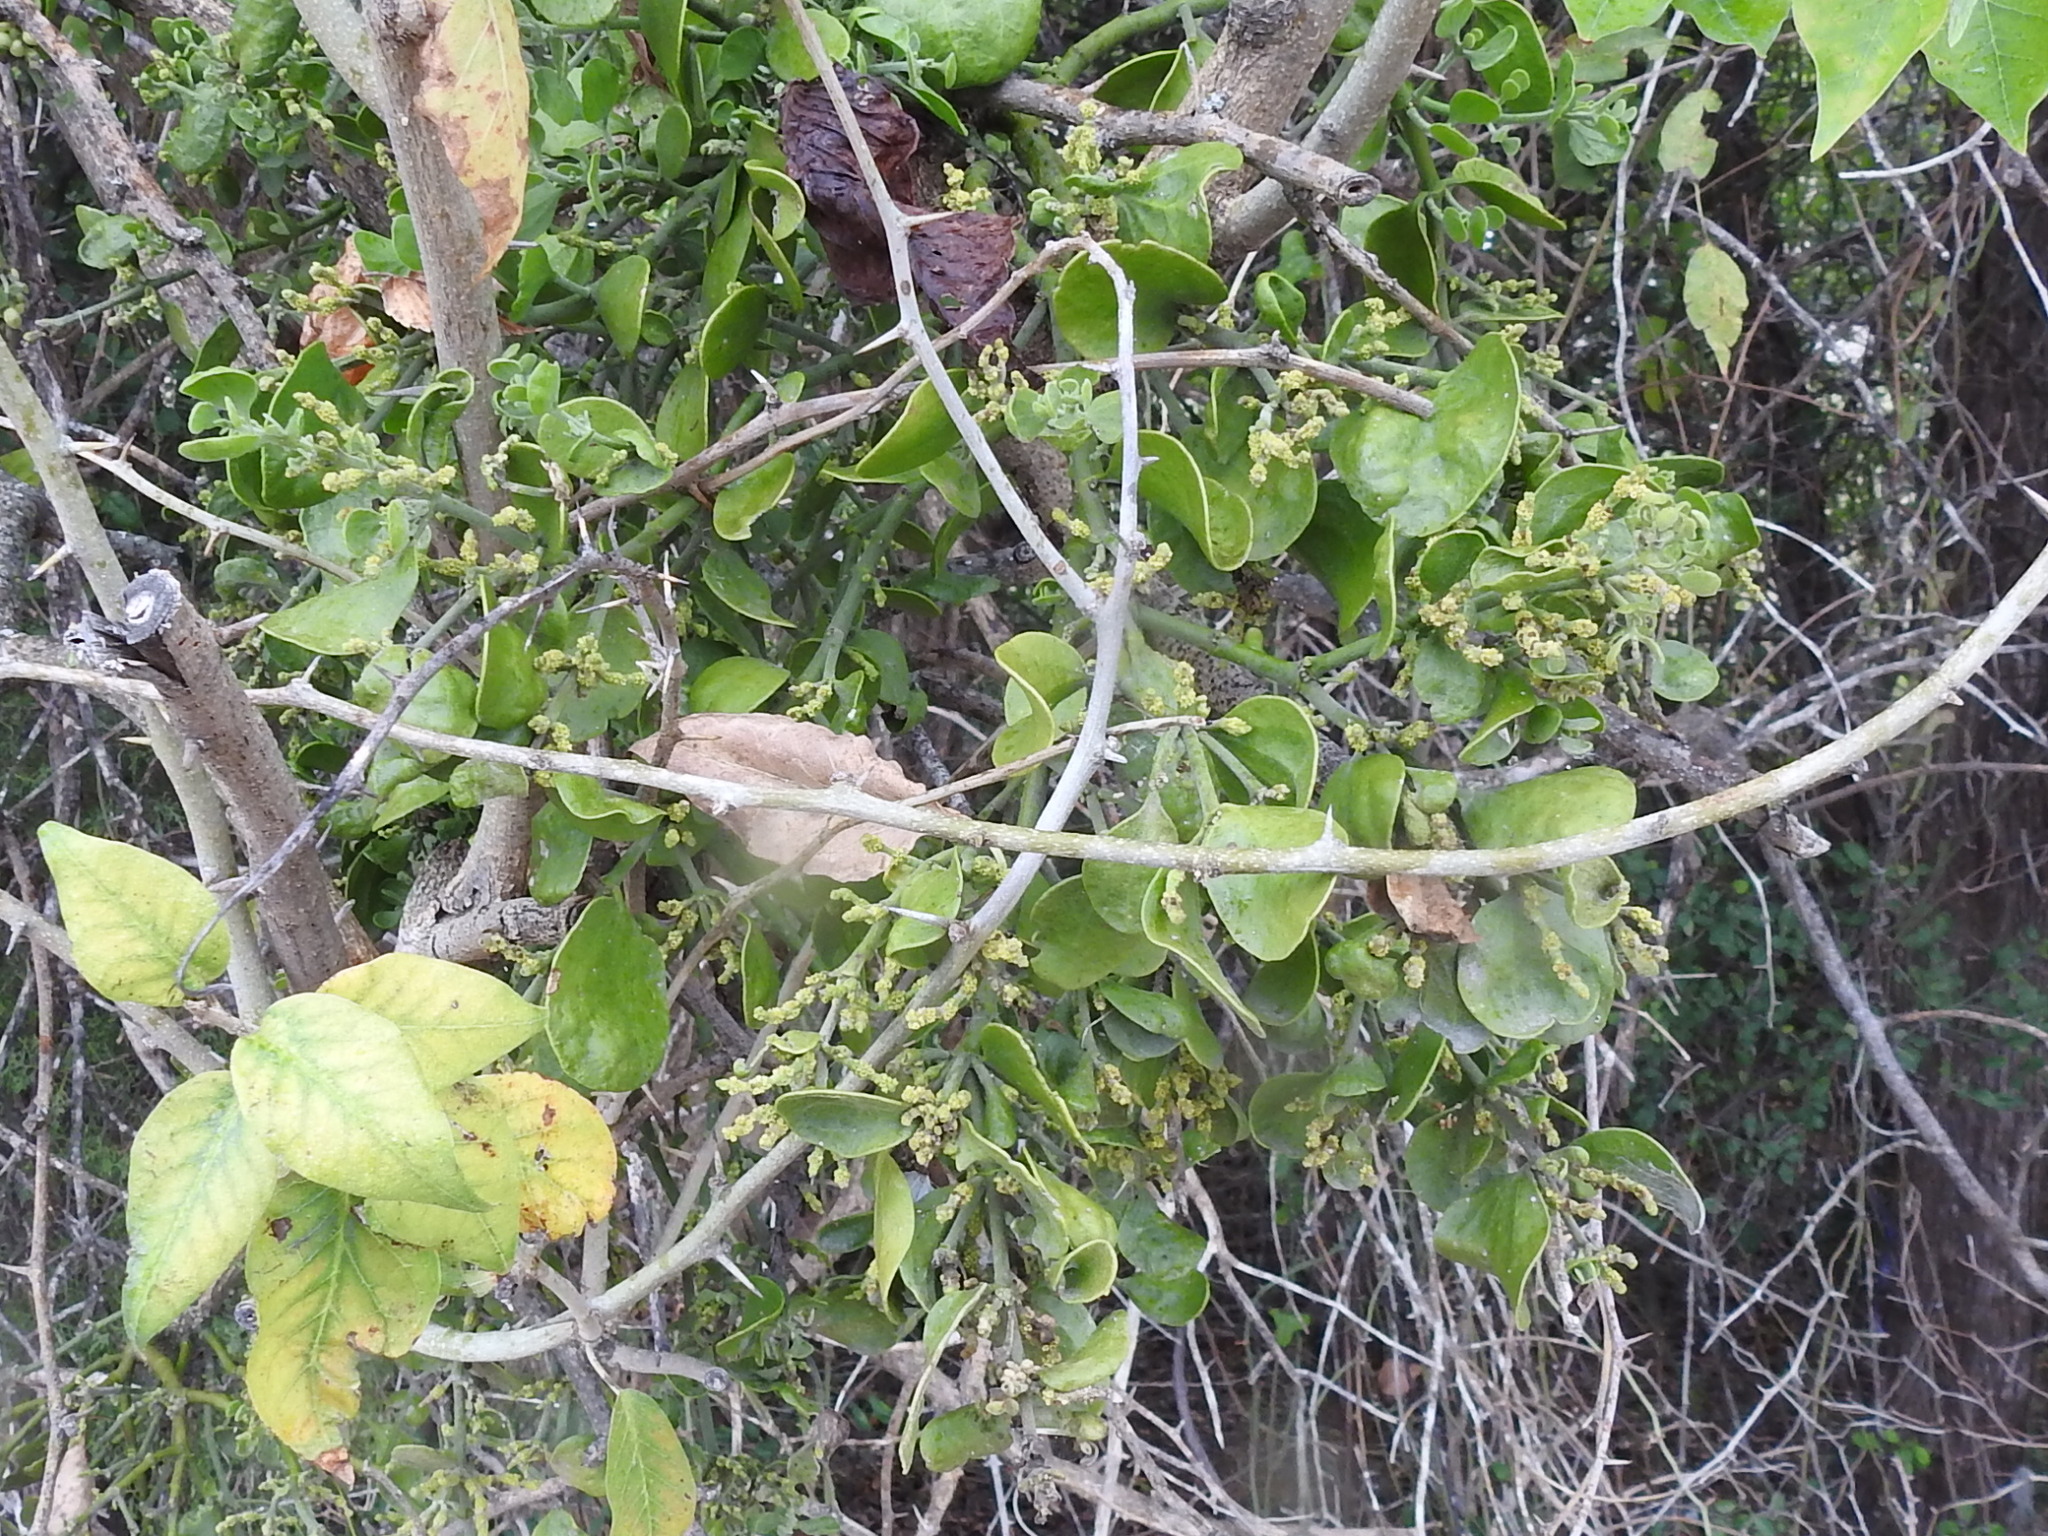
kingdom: Plantae
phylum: Tracheophyta
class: Magnoliopsida
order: Santalales
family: Viscaceae
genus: Phoradendron
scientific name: Phoradendron leucarpum
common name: Pacific mistletoe
